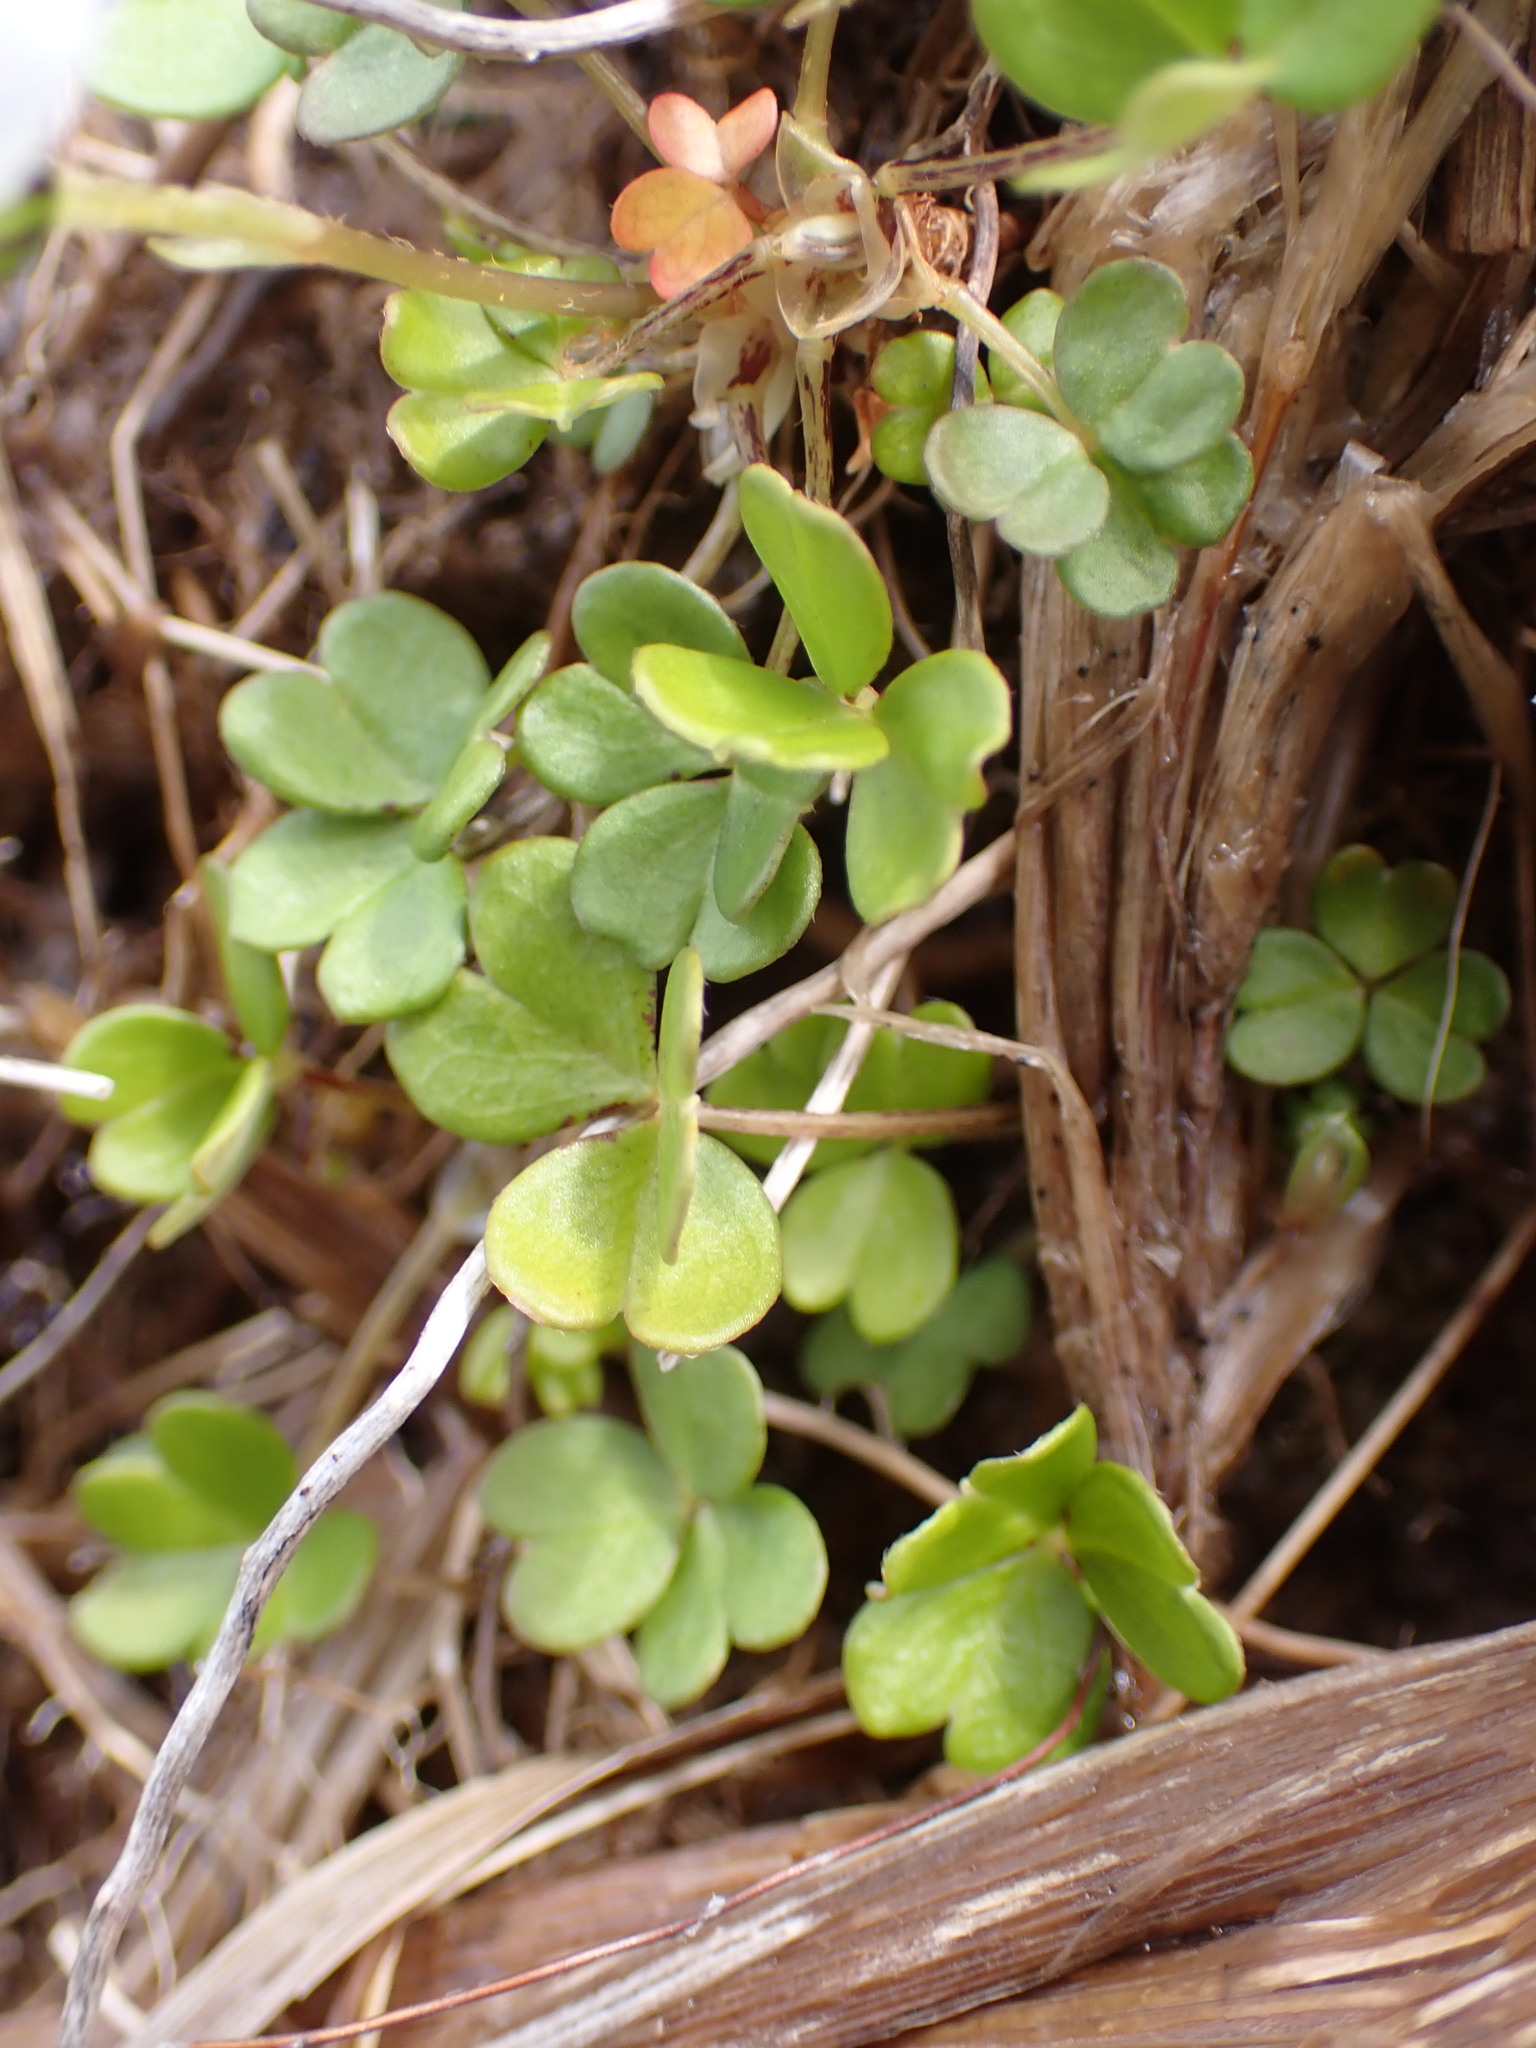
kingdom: Plantae
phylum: Tracheophyta
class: Magnoliopsida
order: Oxalidales
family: Oxalidaceae
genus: Oxalis
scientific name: Oxalis magellanica
